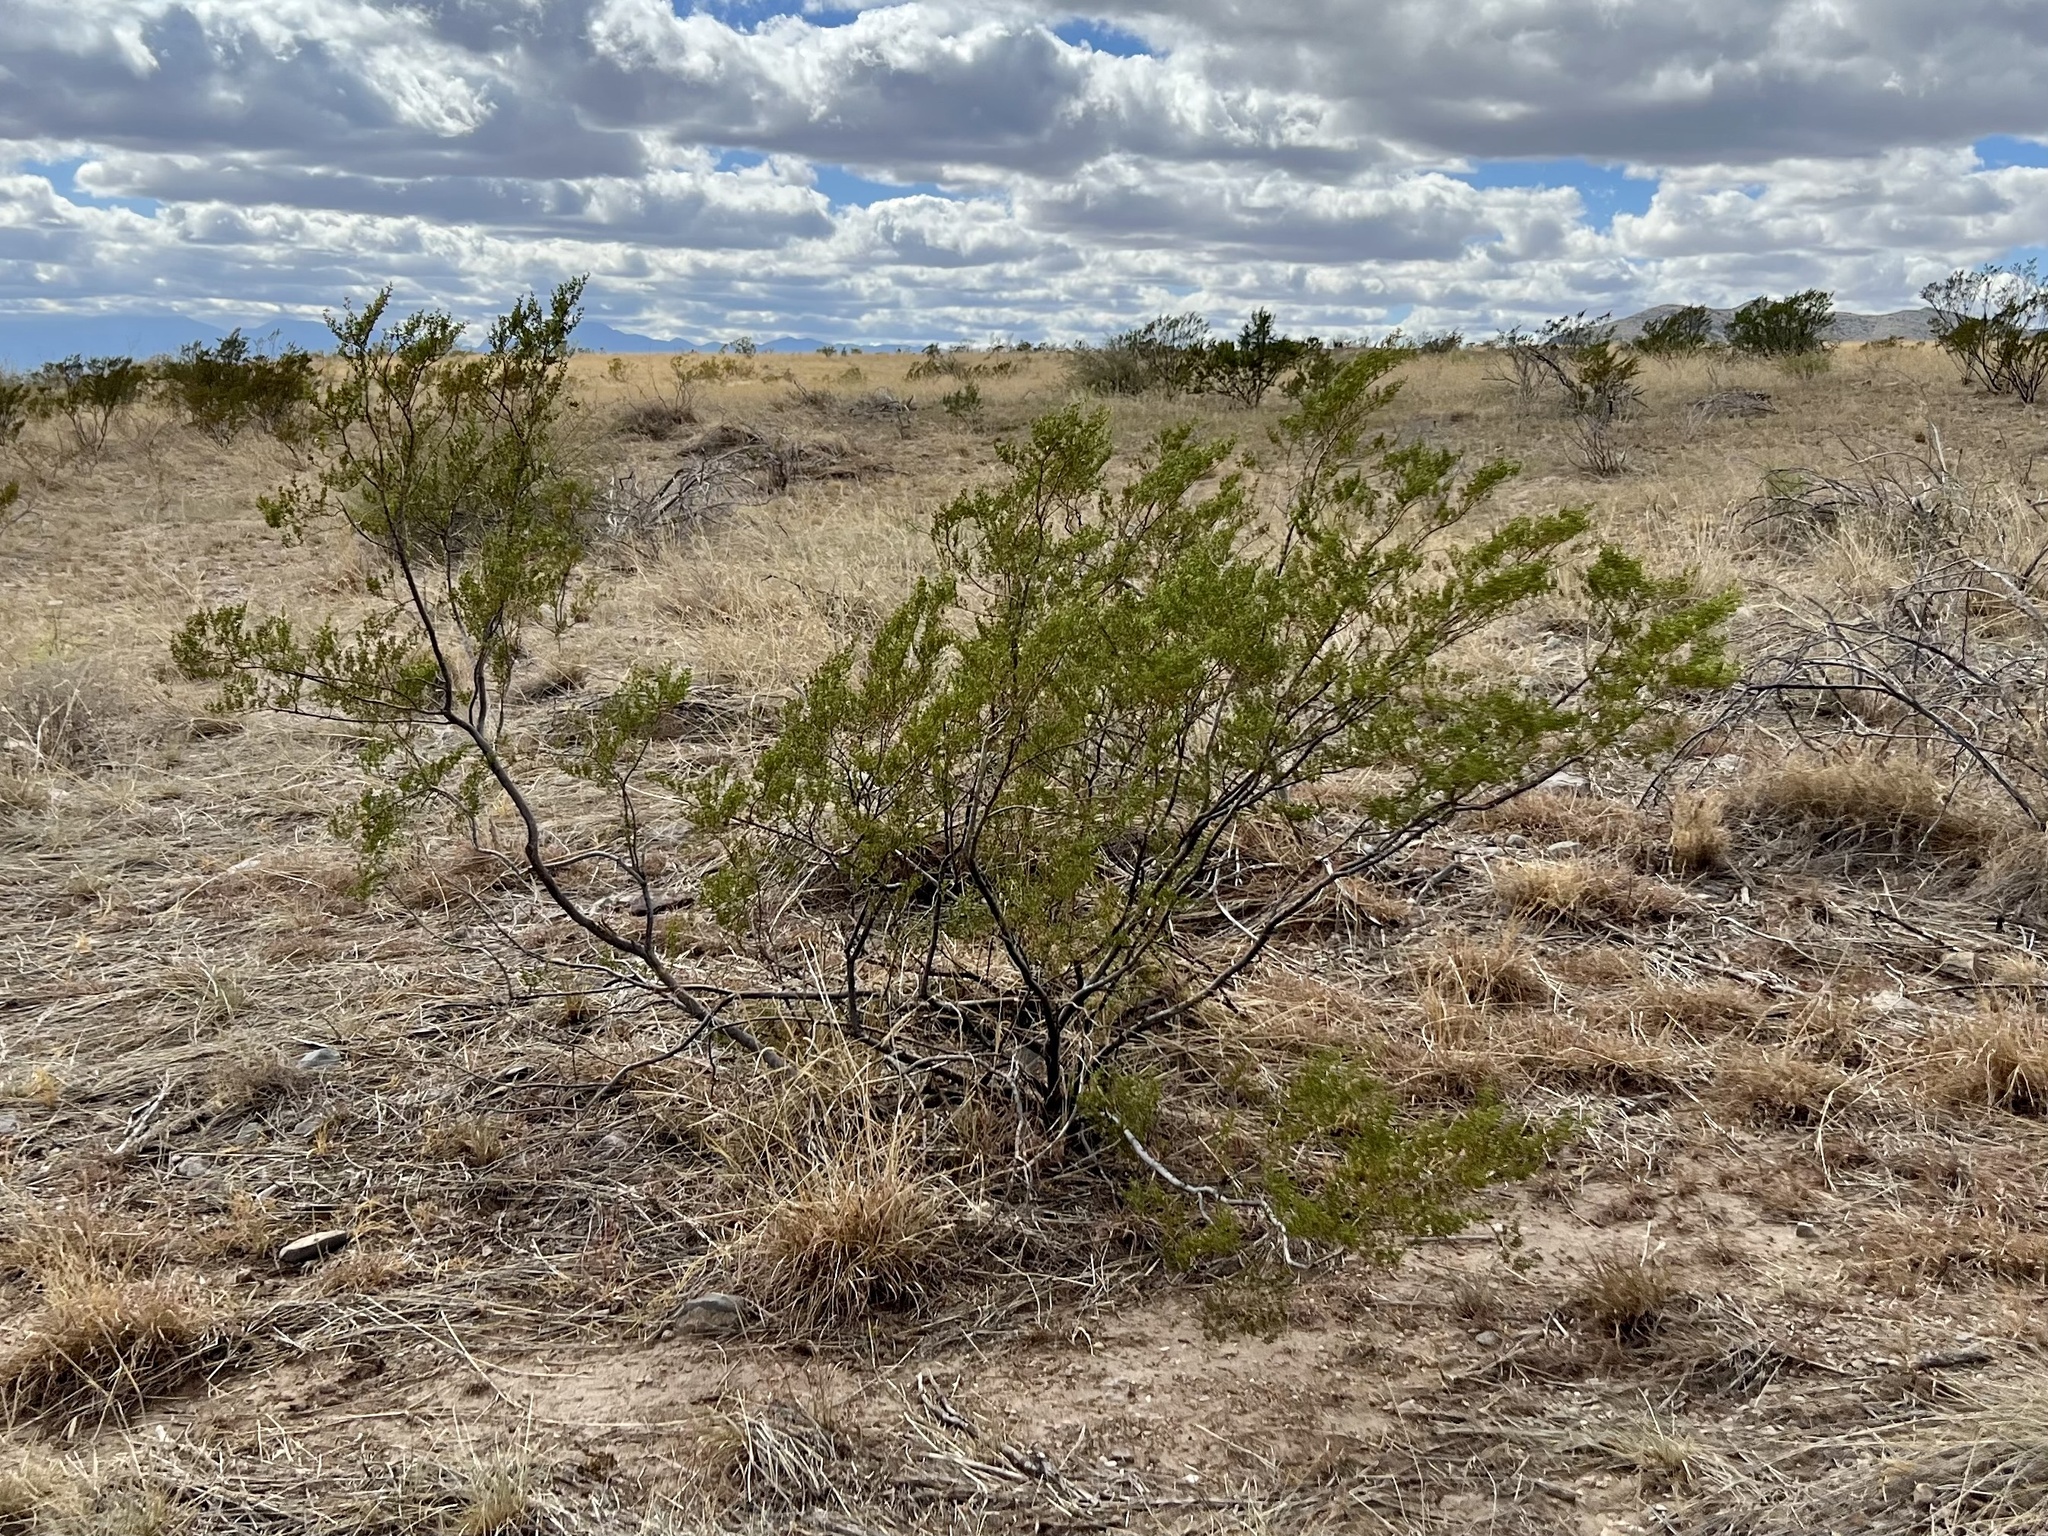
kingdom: Plantae
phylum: Tracheophyta
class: Magnoliopsida
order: Zygophyllales
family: Zygophyllaceae
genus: Larrea
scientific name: Larrea tridentata
